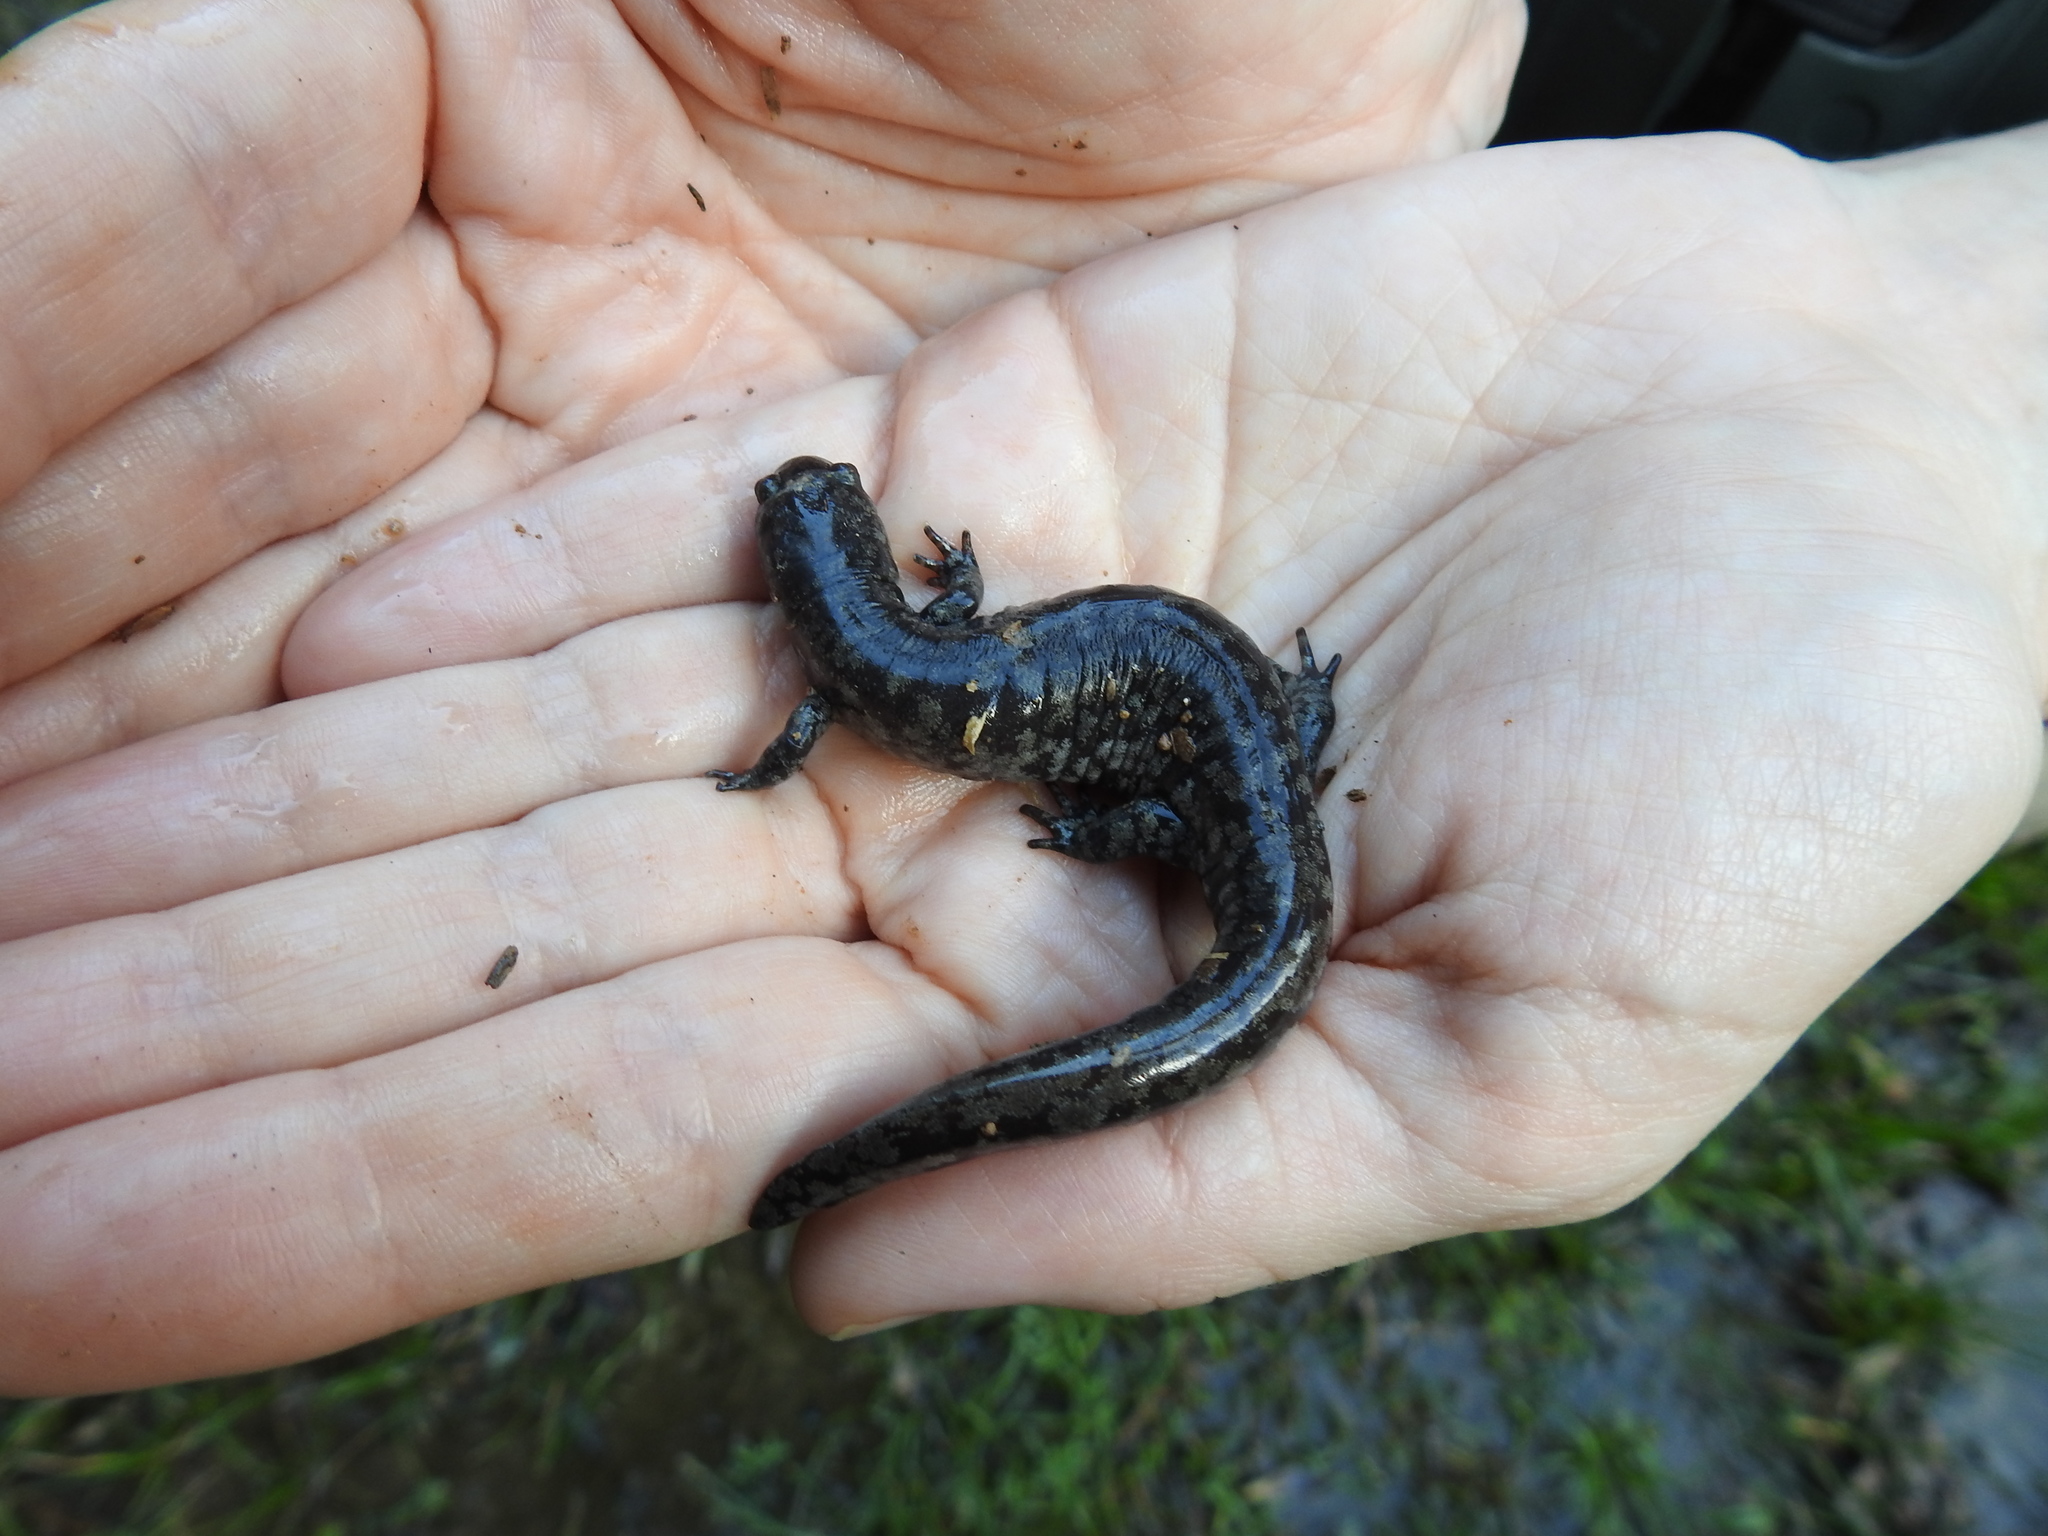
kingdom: Animalia
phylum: Chordata
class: Amphibia
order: Caudata
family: Ambystomatidae
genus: Ambystoma
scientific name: Ambystoma texanum
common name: Small-mouth salamander
